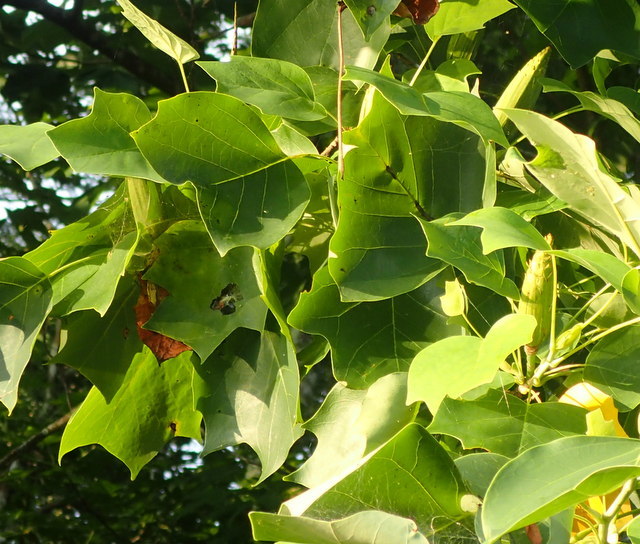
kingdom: Plantae
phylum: Tracheophyta
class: Magnoliopsida
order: Magnoliales
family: Magnoliaceae
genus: Liriodendron
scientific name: Liriodendron tulipifera
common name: Tulip tree
